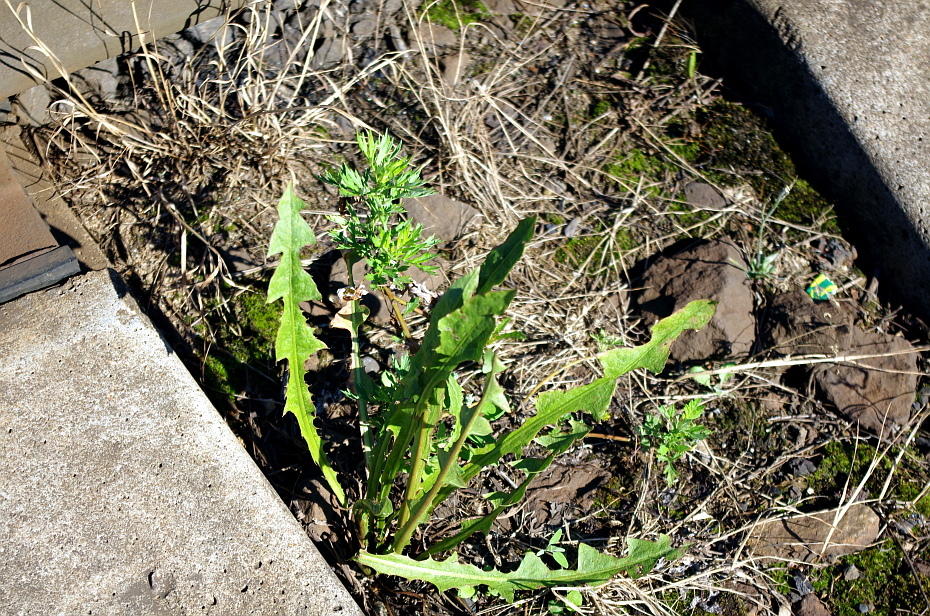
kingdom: Plantae
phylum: Tracheophyta
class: Magnoliopsida
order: Asterales
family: Asteraceae
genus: Taraxacum
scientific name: Taraxacum officinale
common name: Common dandelion
